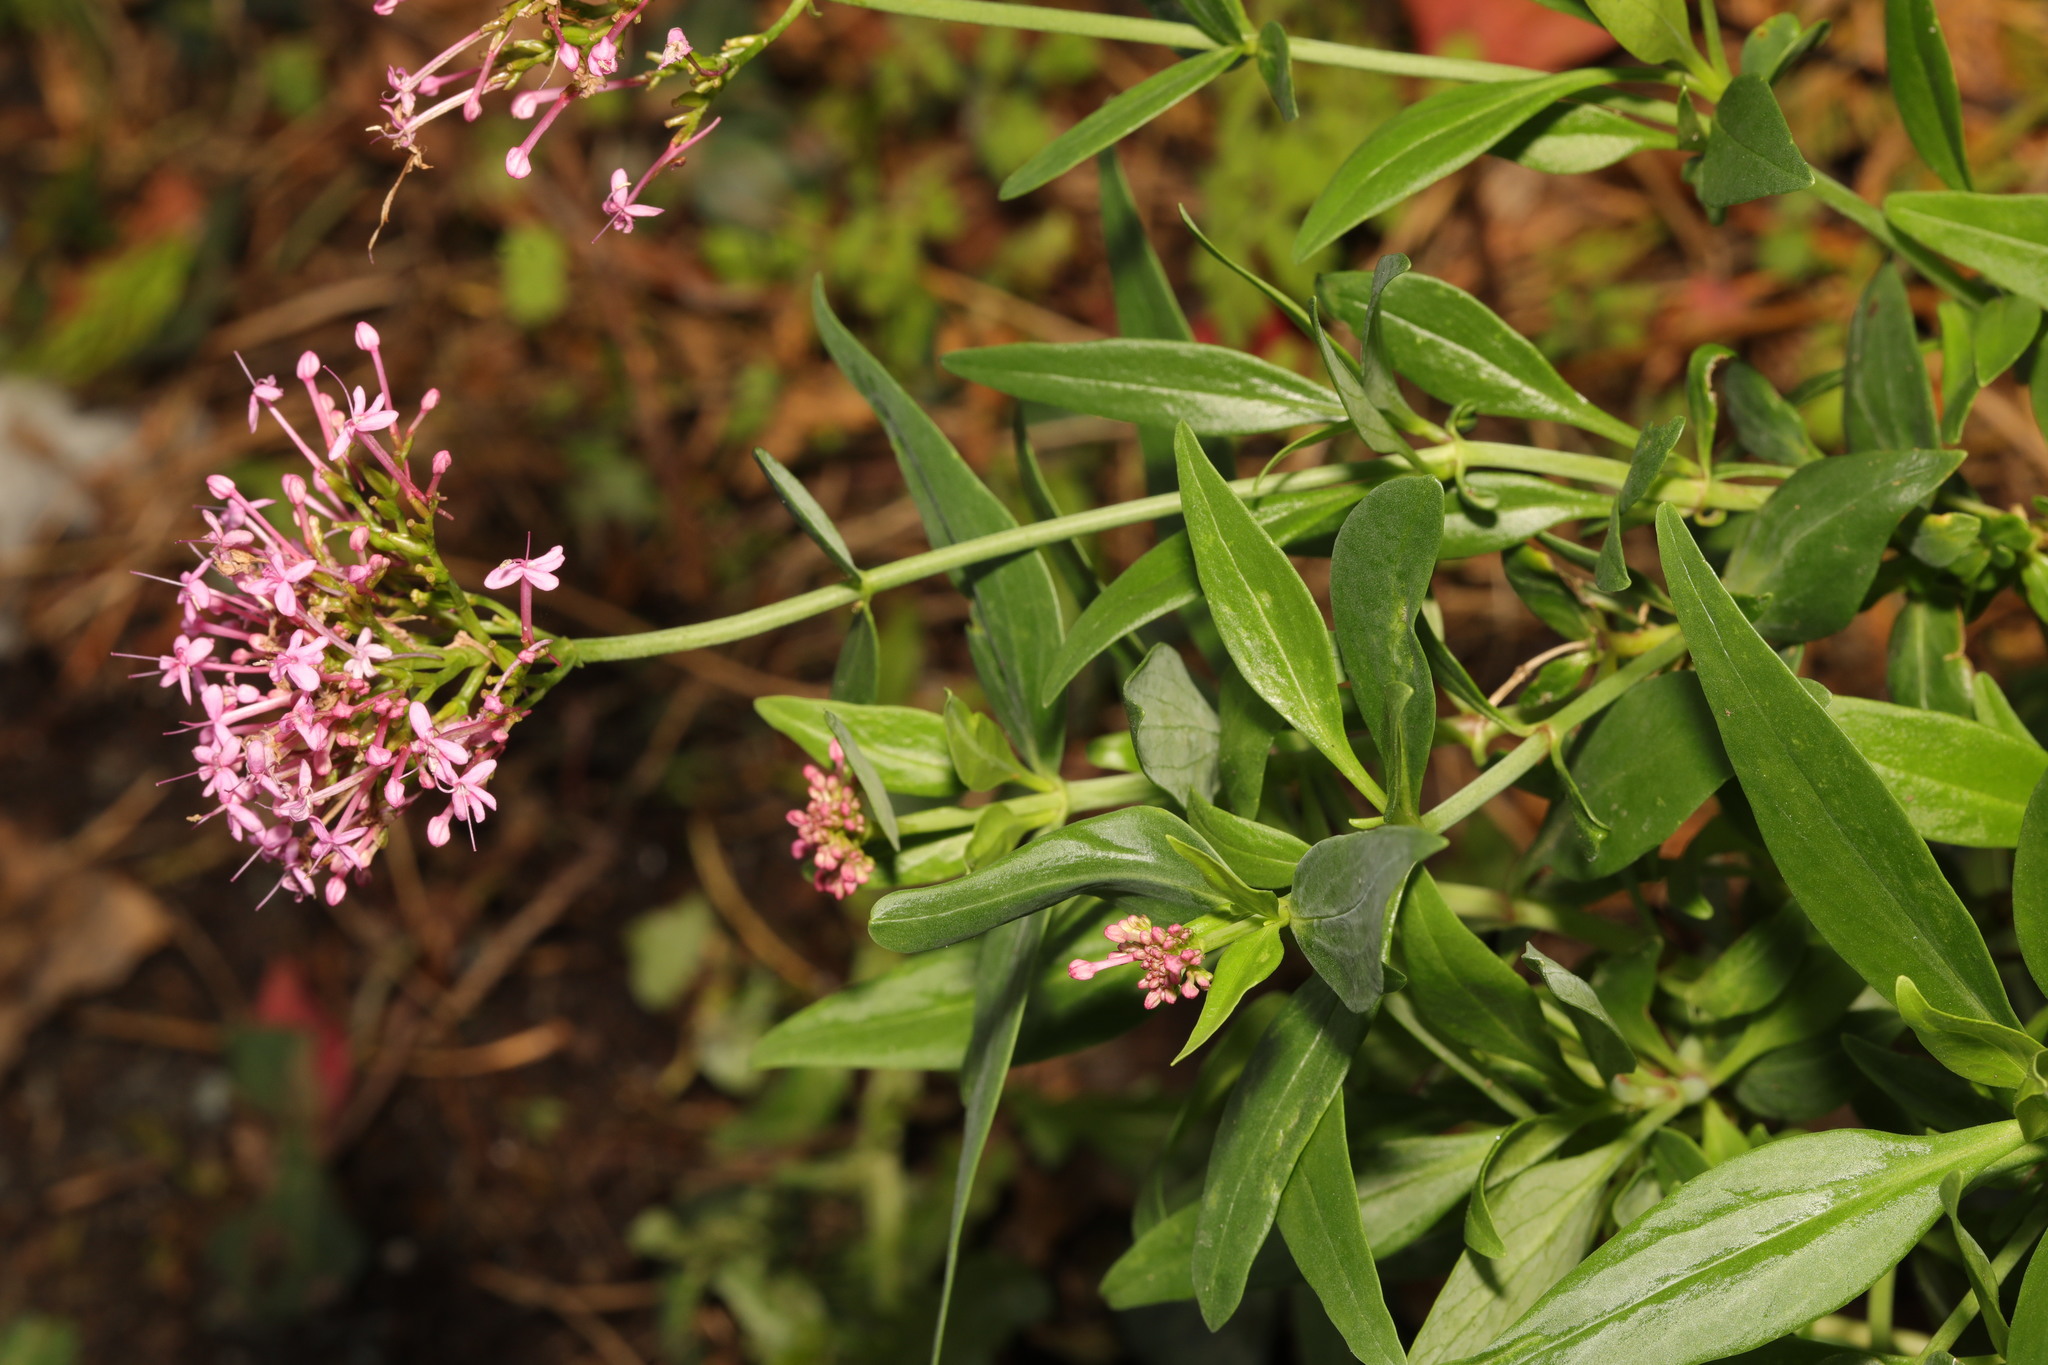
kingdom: Plantae
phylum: Tracheophyta
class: Magnoliopsida
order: Dipsacales
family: Caprifoliaceae
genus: Centranthus
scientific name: Centranthus ruber
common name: Red valerian
